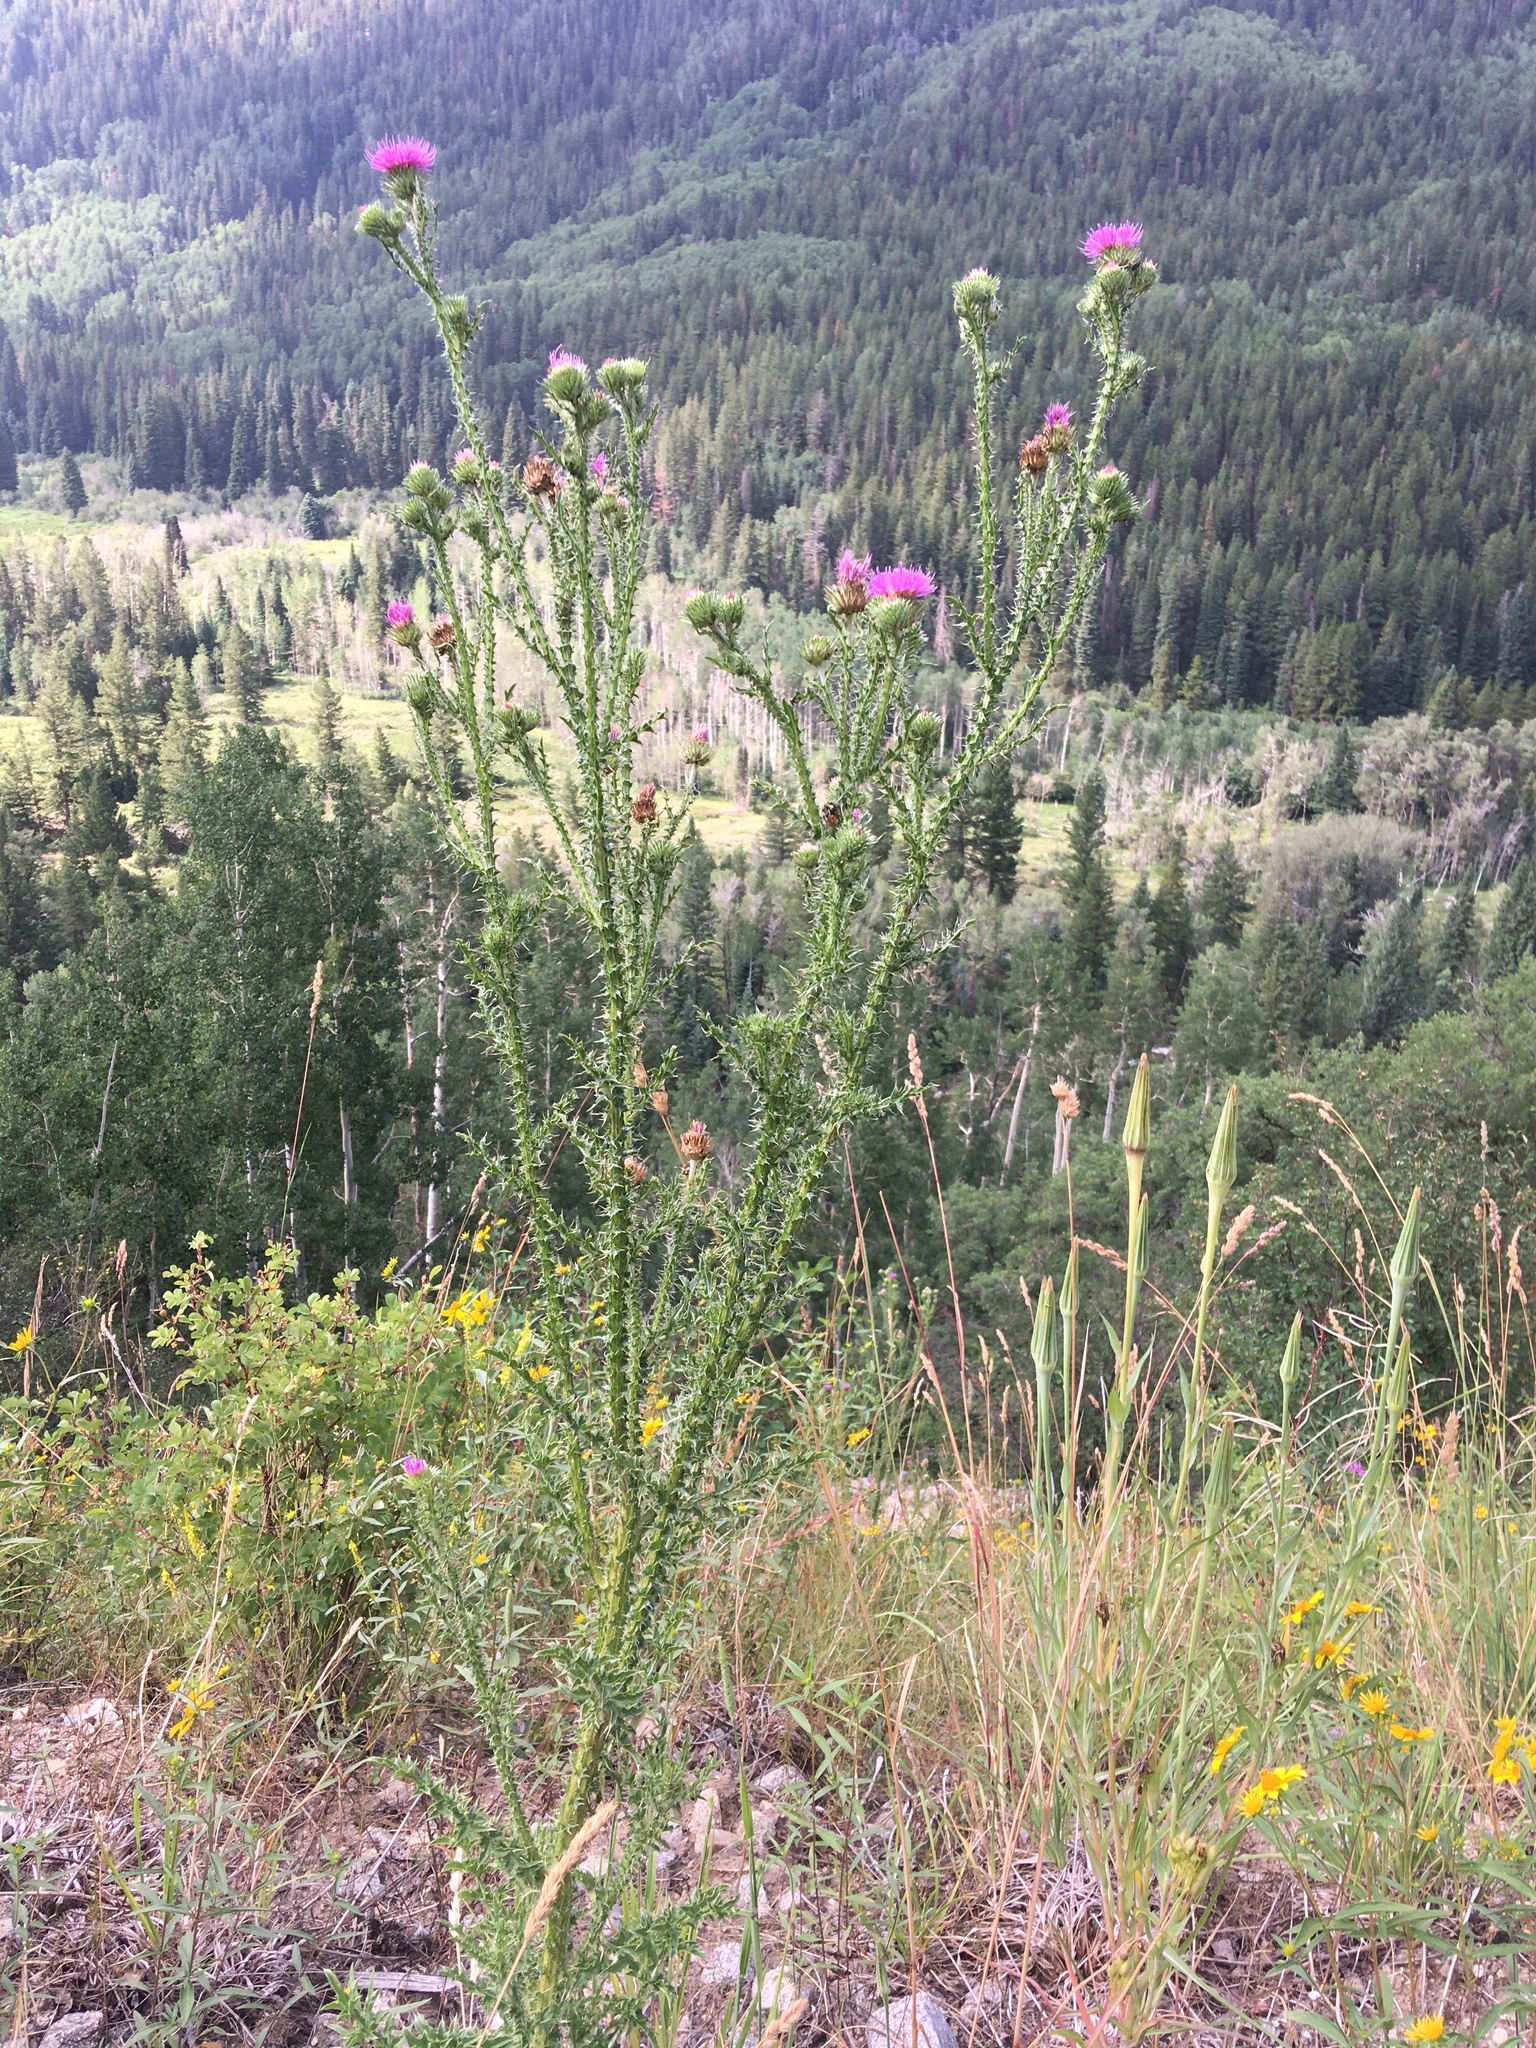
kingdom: Plantae
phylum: Tracheophyta
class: Magnoliopsida
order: Asterales
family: Asteraceae
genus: Carduus
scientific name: Carduus acanthoides
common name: Plumeless thistle
